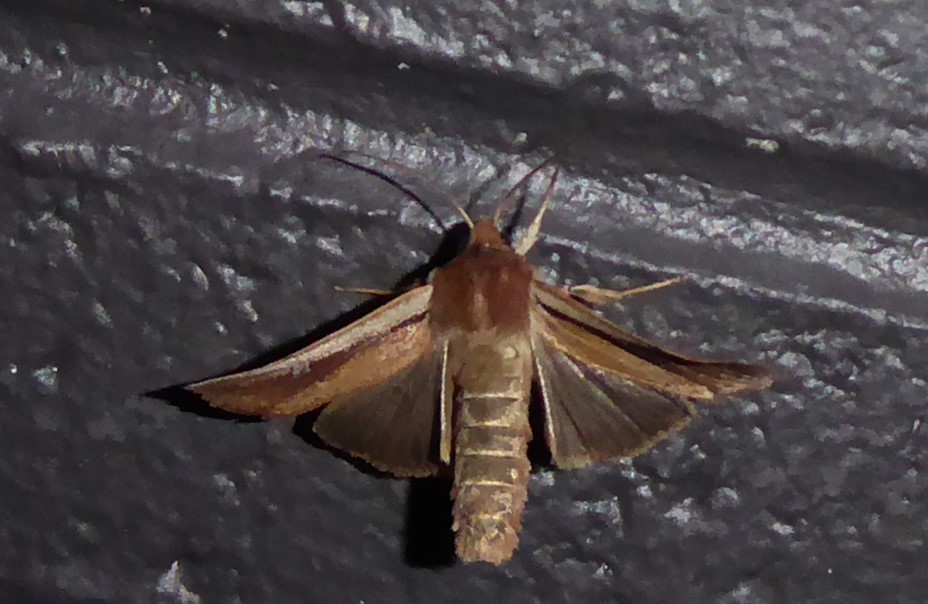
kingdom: Animalia
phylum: Arthropoda
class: Insecta
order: Lepidoptera
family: Noctuidae
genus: Ichneutica
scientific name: Ichneutica atristriga
